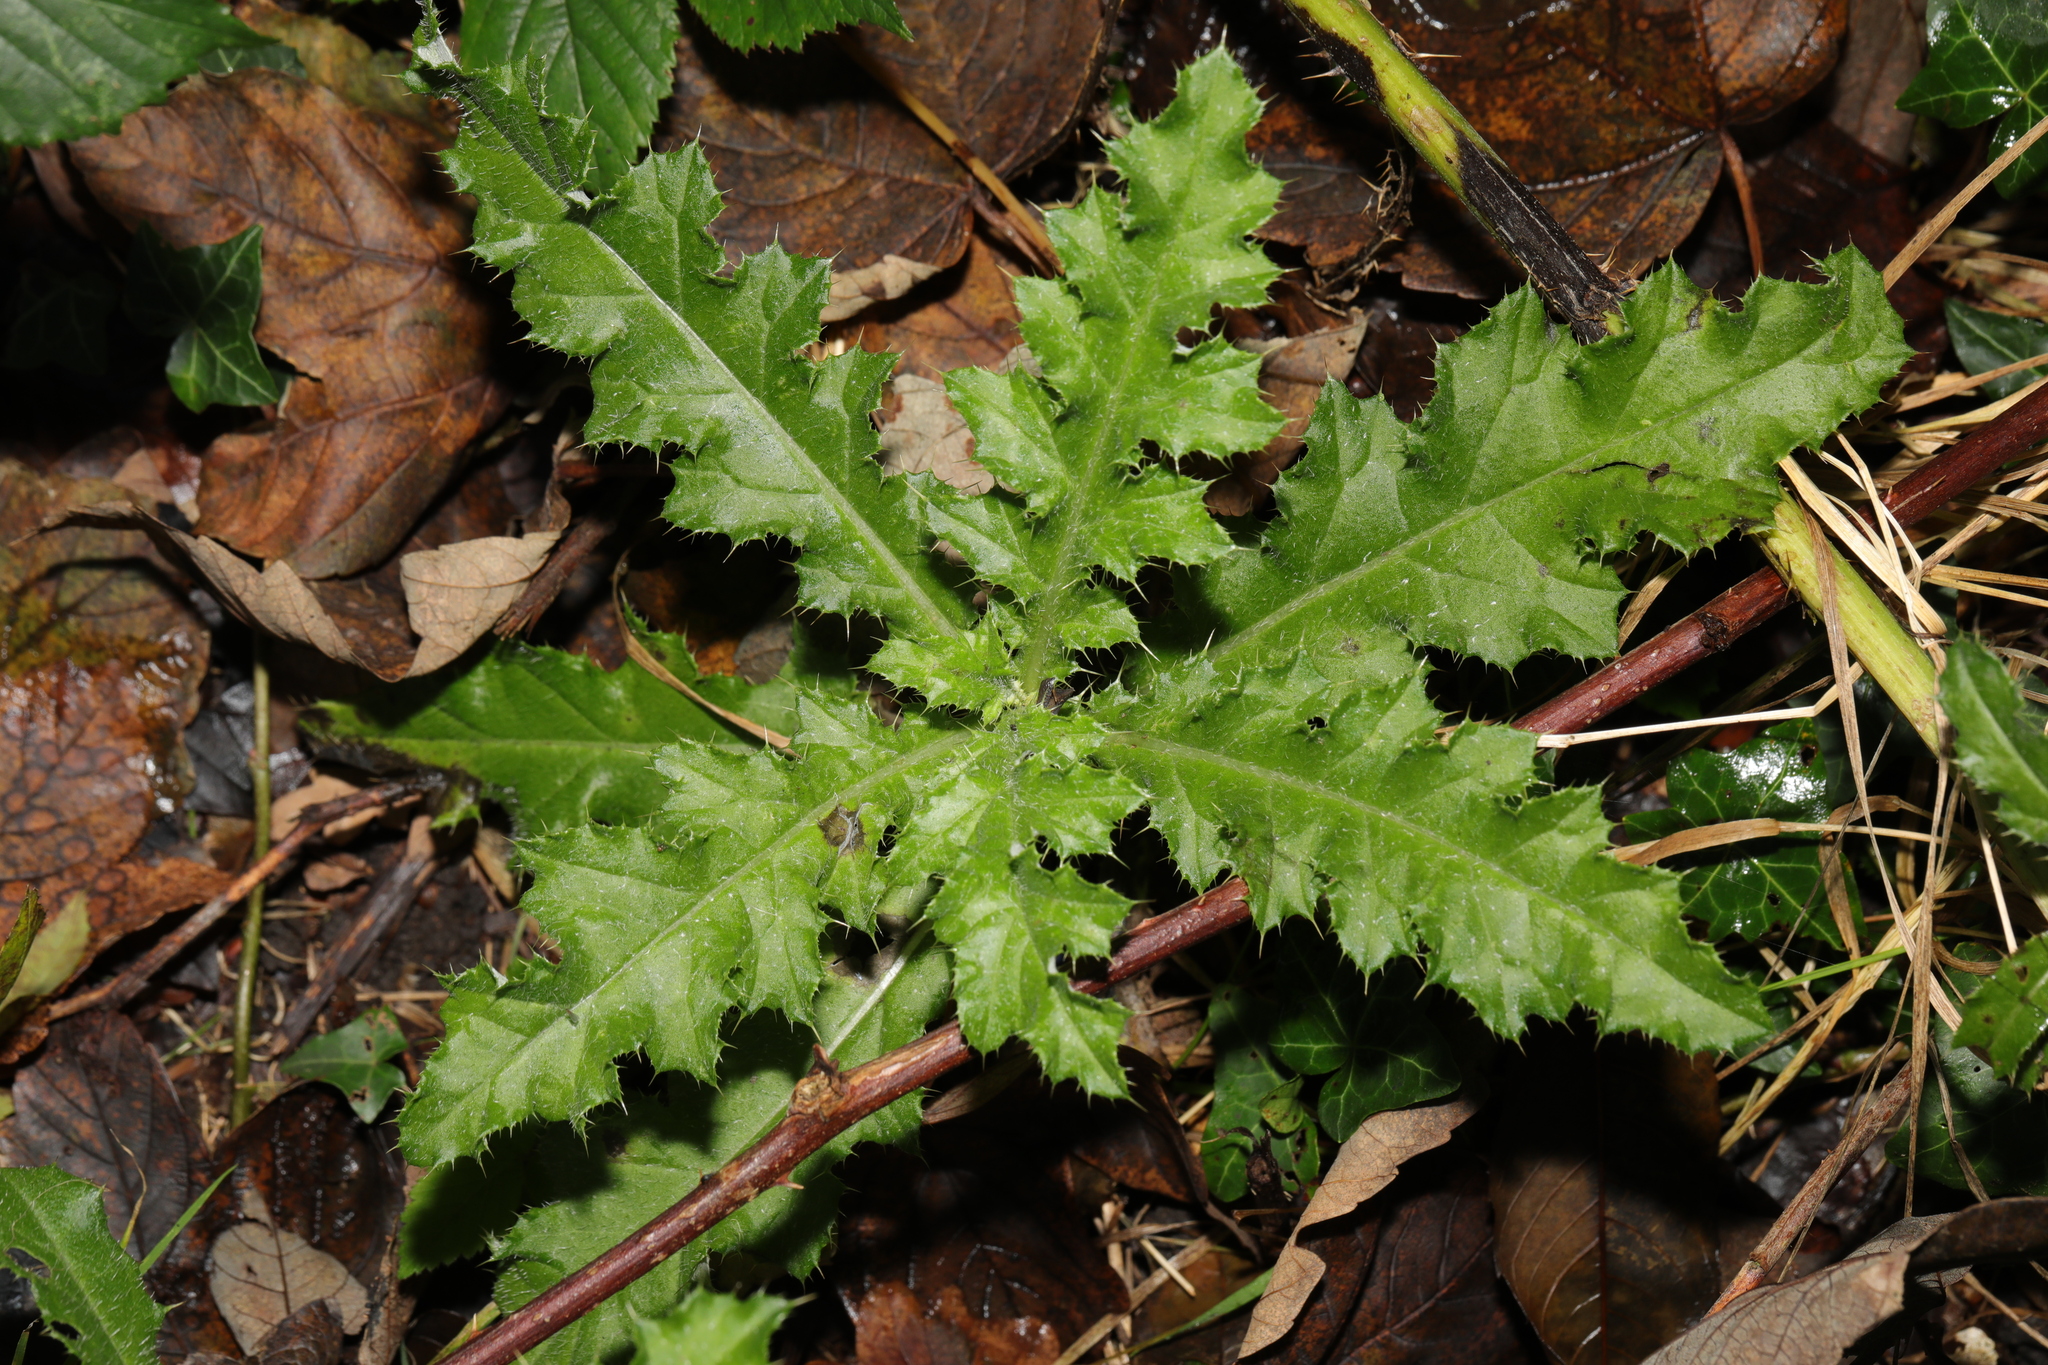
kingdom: Plantae
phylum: Tracheophyta
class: Magnoliopsida
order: Asterales
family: Asteraceae
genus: Cirsium
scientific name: Cirsium arvense
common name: Creeping thistle
